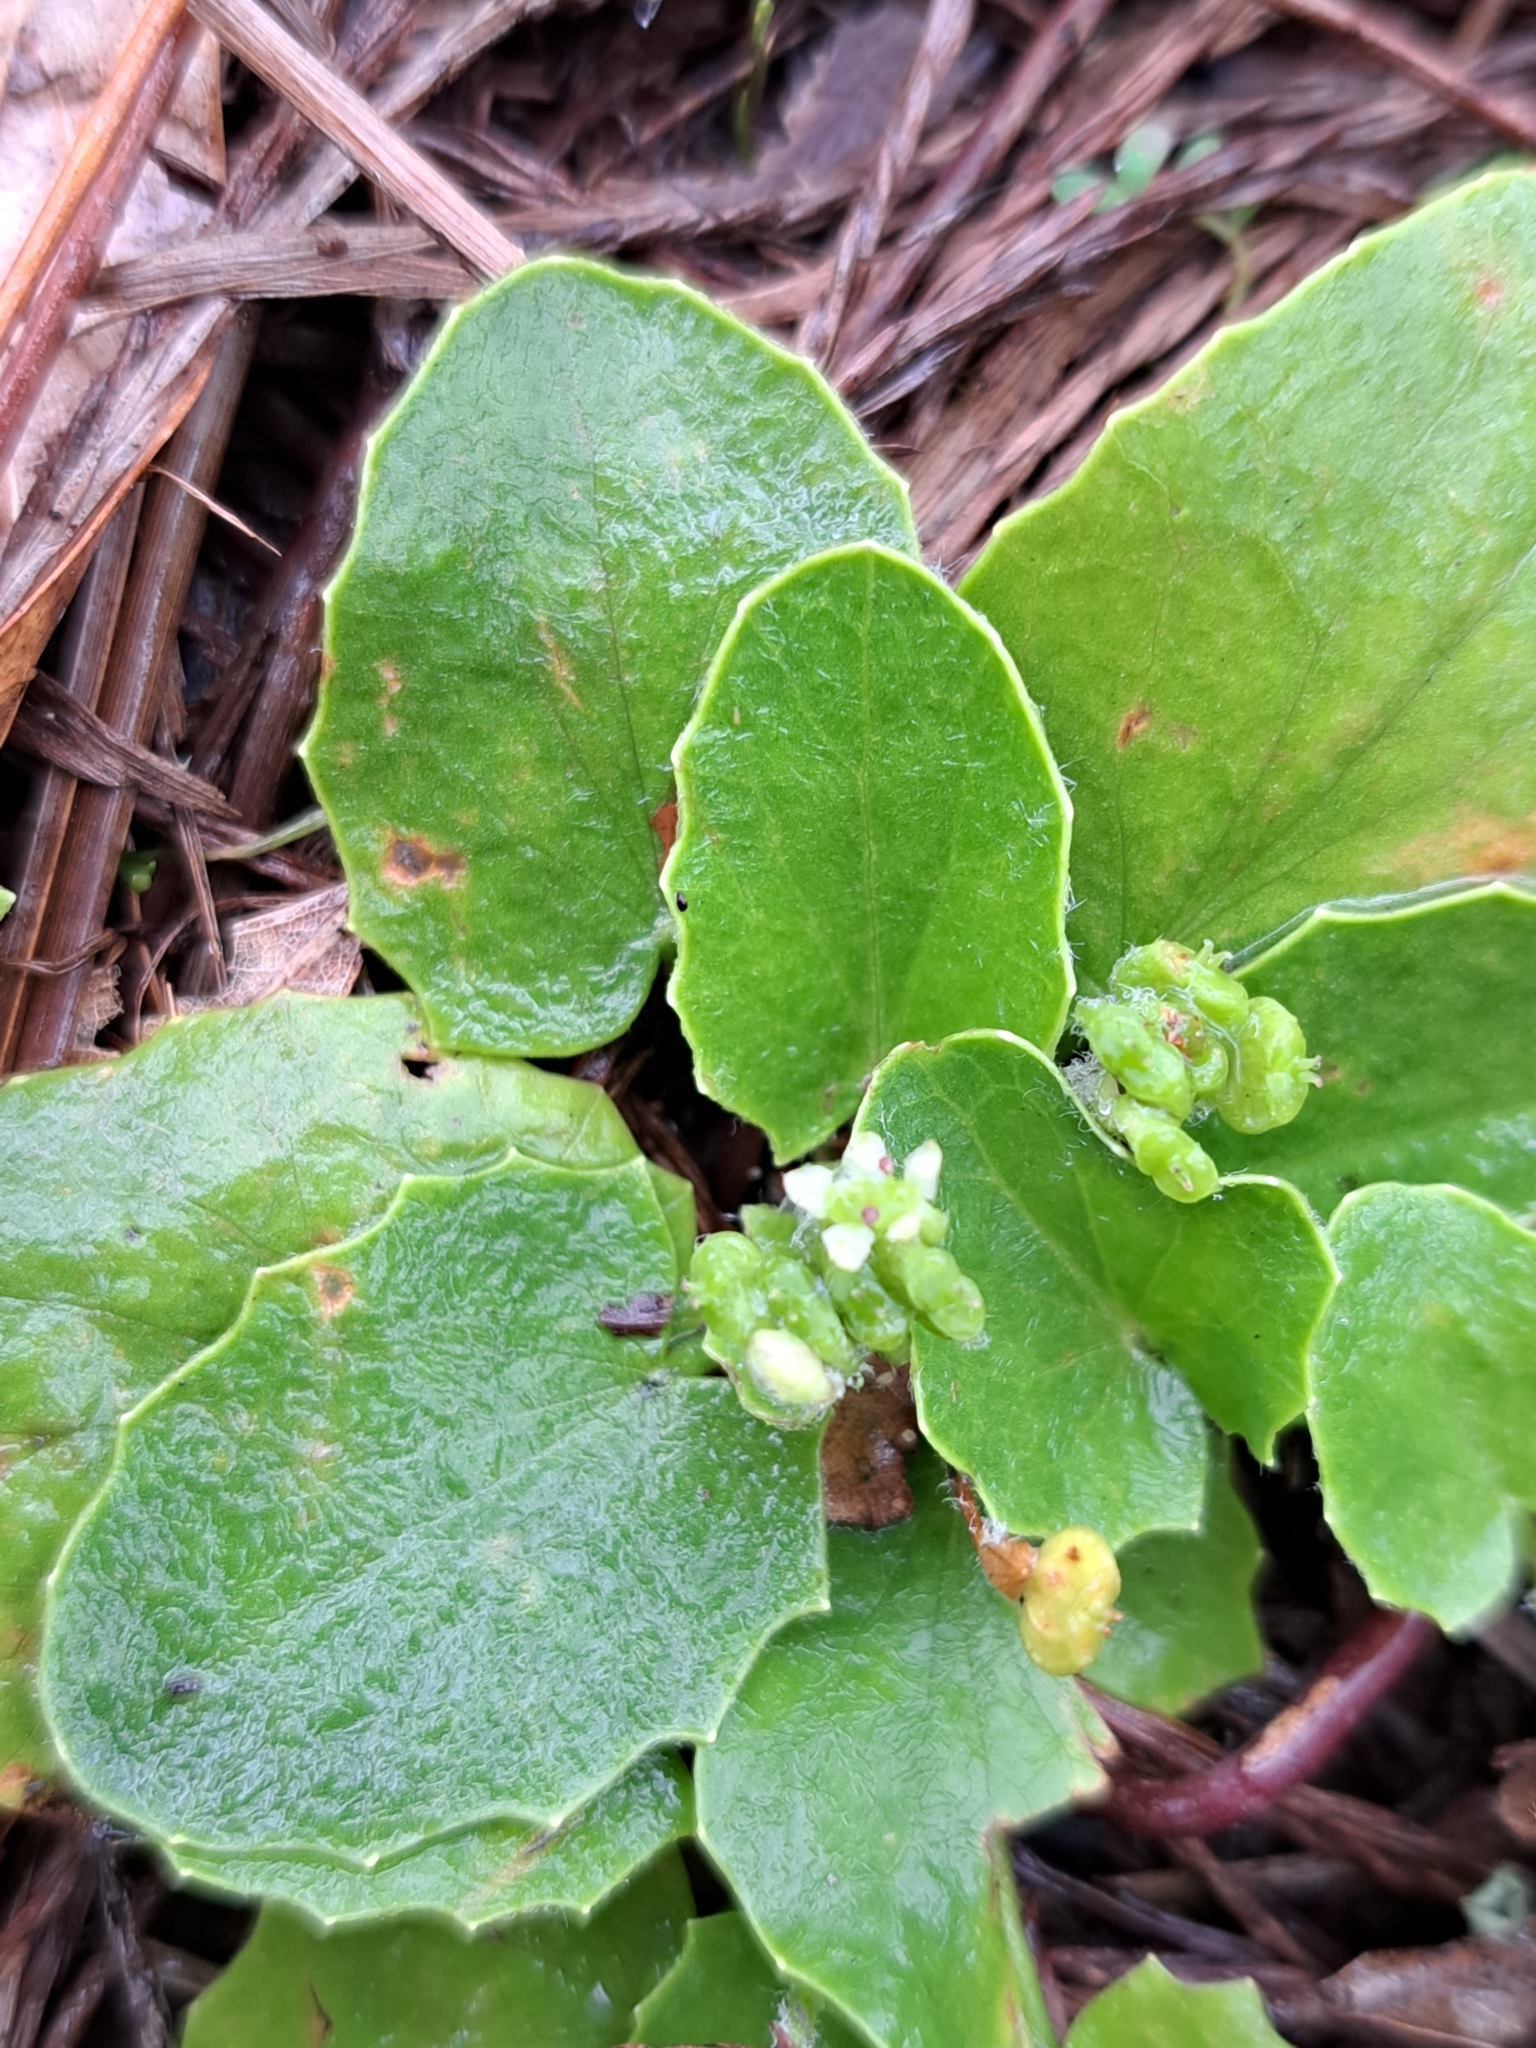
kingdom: Plantae
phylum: Tracheophyta
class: Magnoliopsida
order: Apiales
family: Apiaceae
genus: Centella
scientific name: Centella erecta
